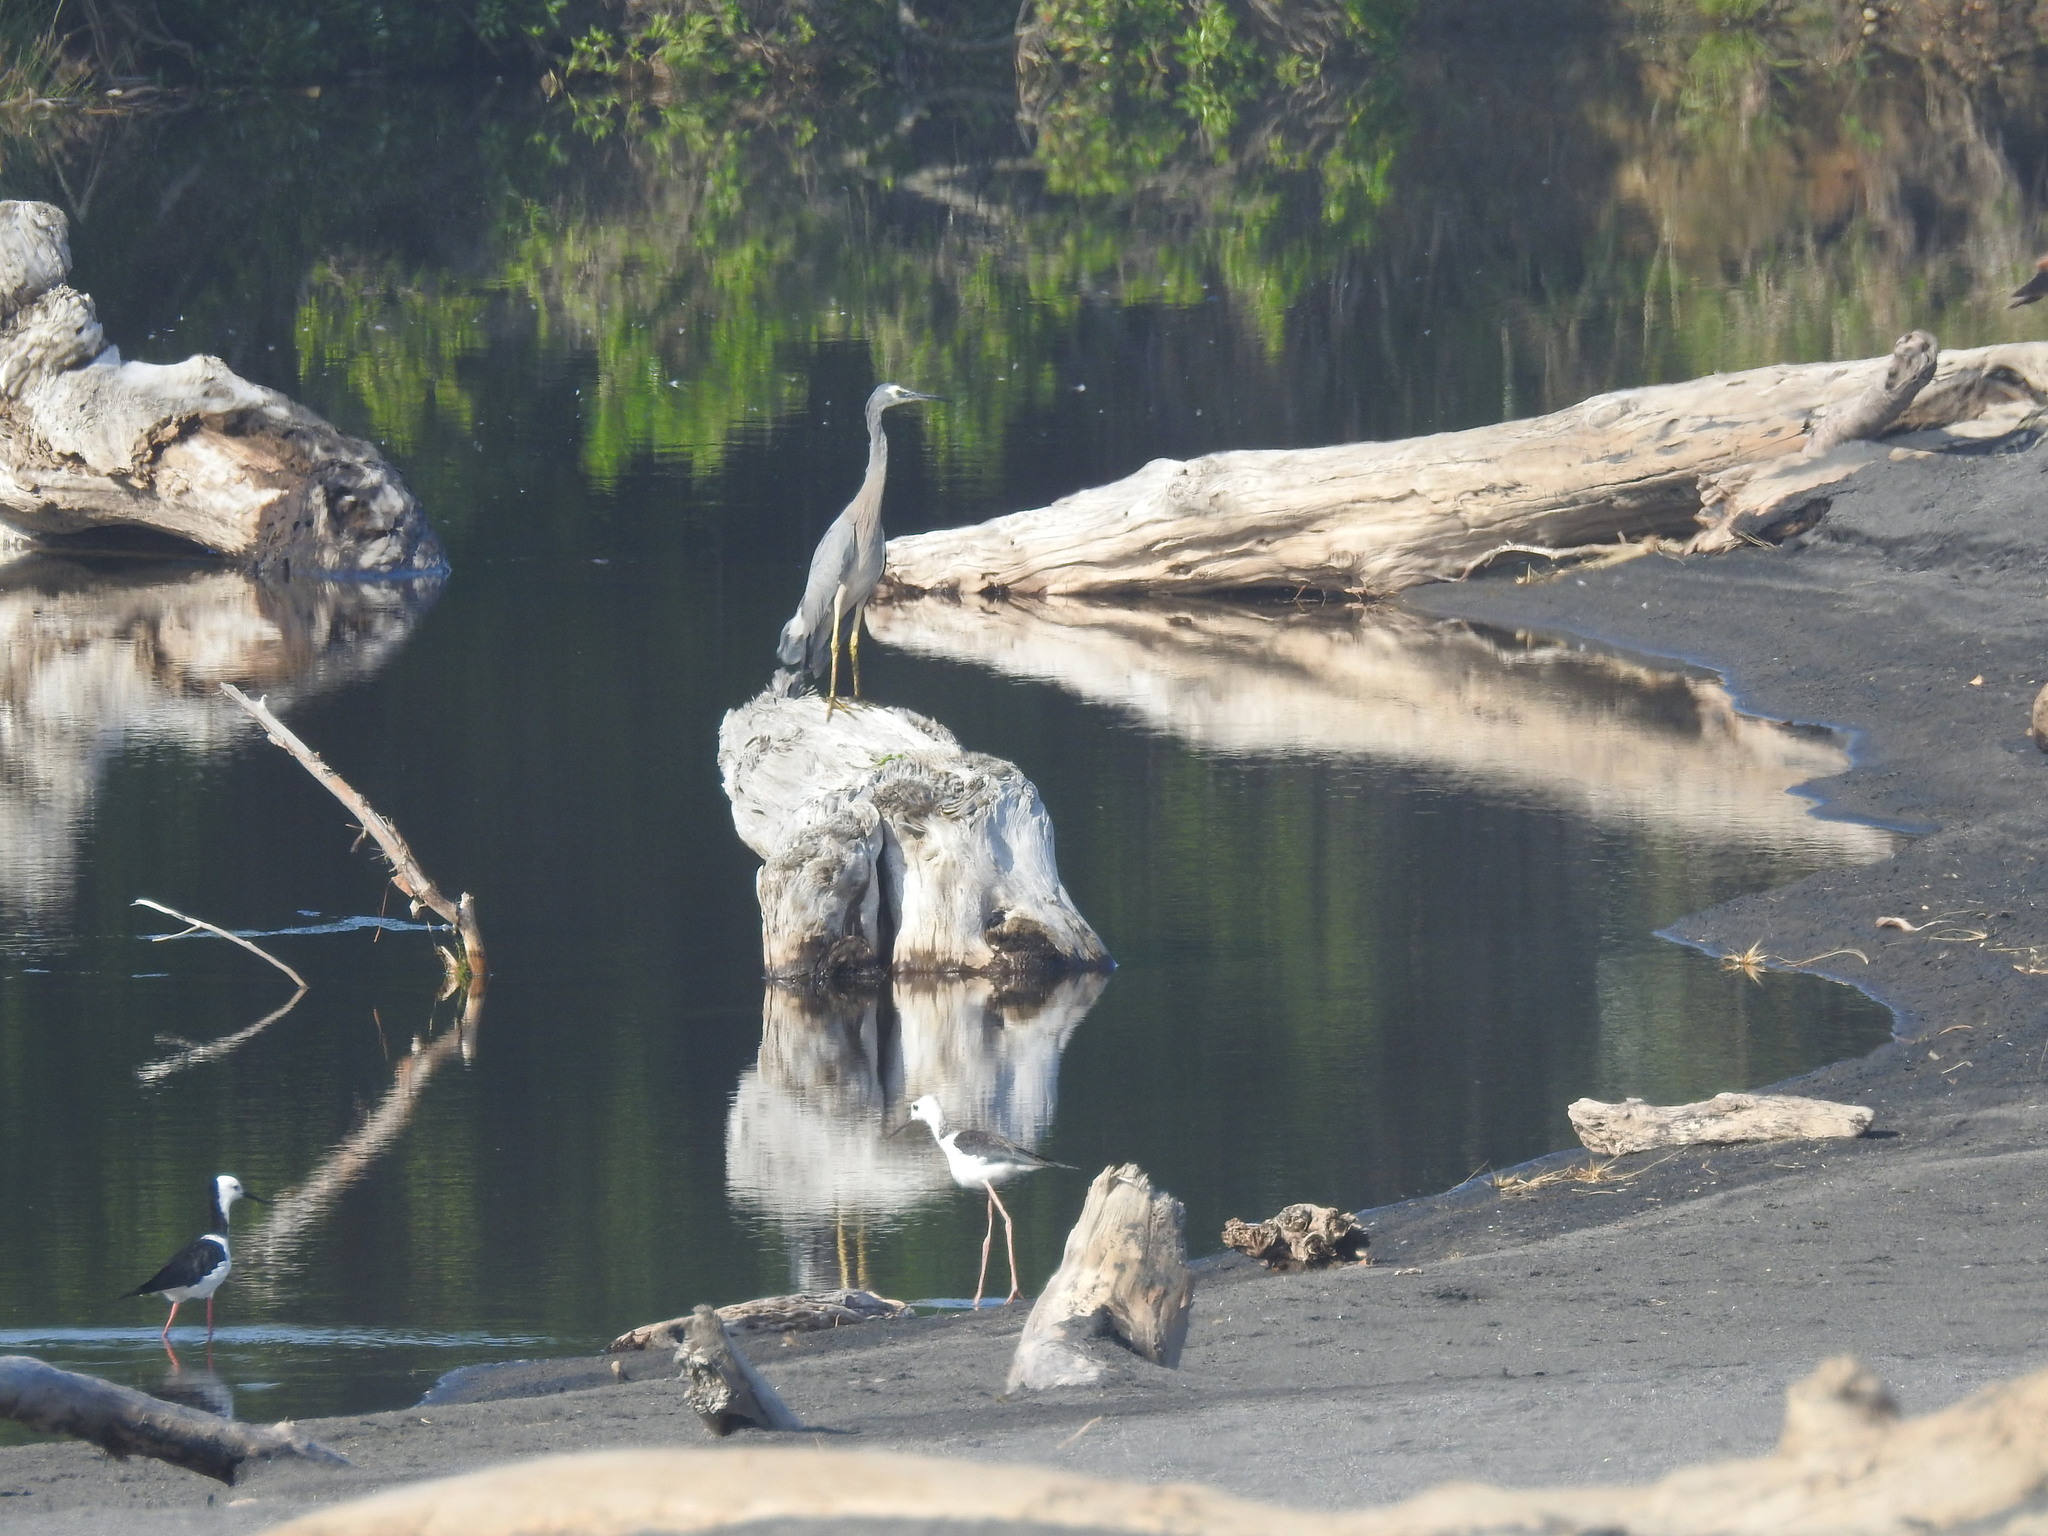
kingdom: Animalia
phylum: Chordata
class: Aves
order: Pelecaniformes
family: Ardeidae
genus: Egretta
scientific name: Egretta novaehollandiae
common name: White-faced heron
